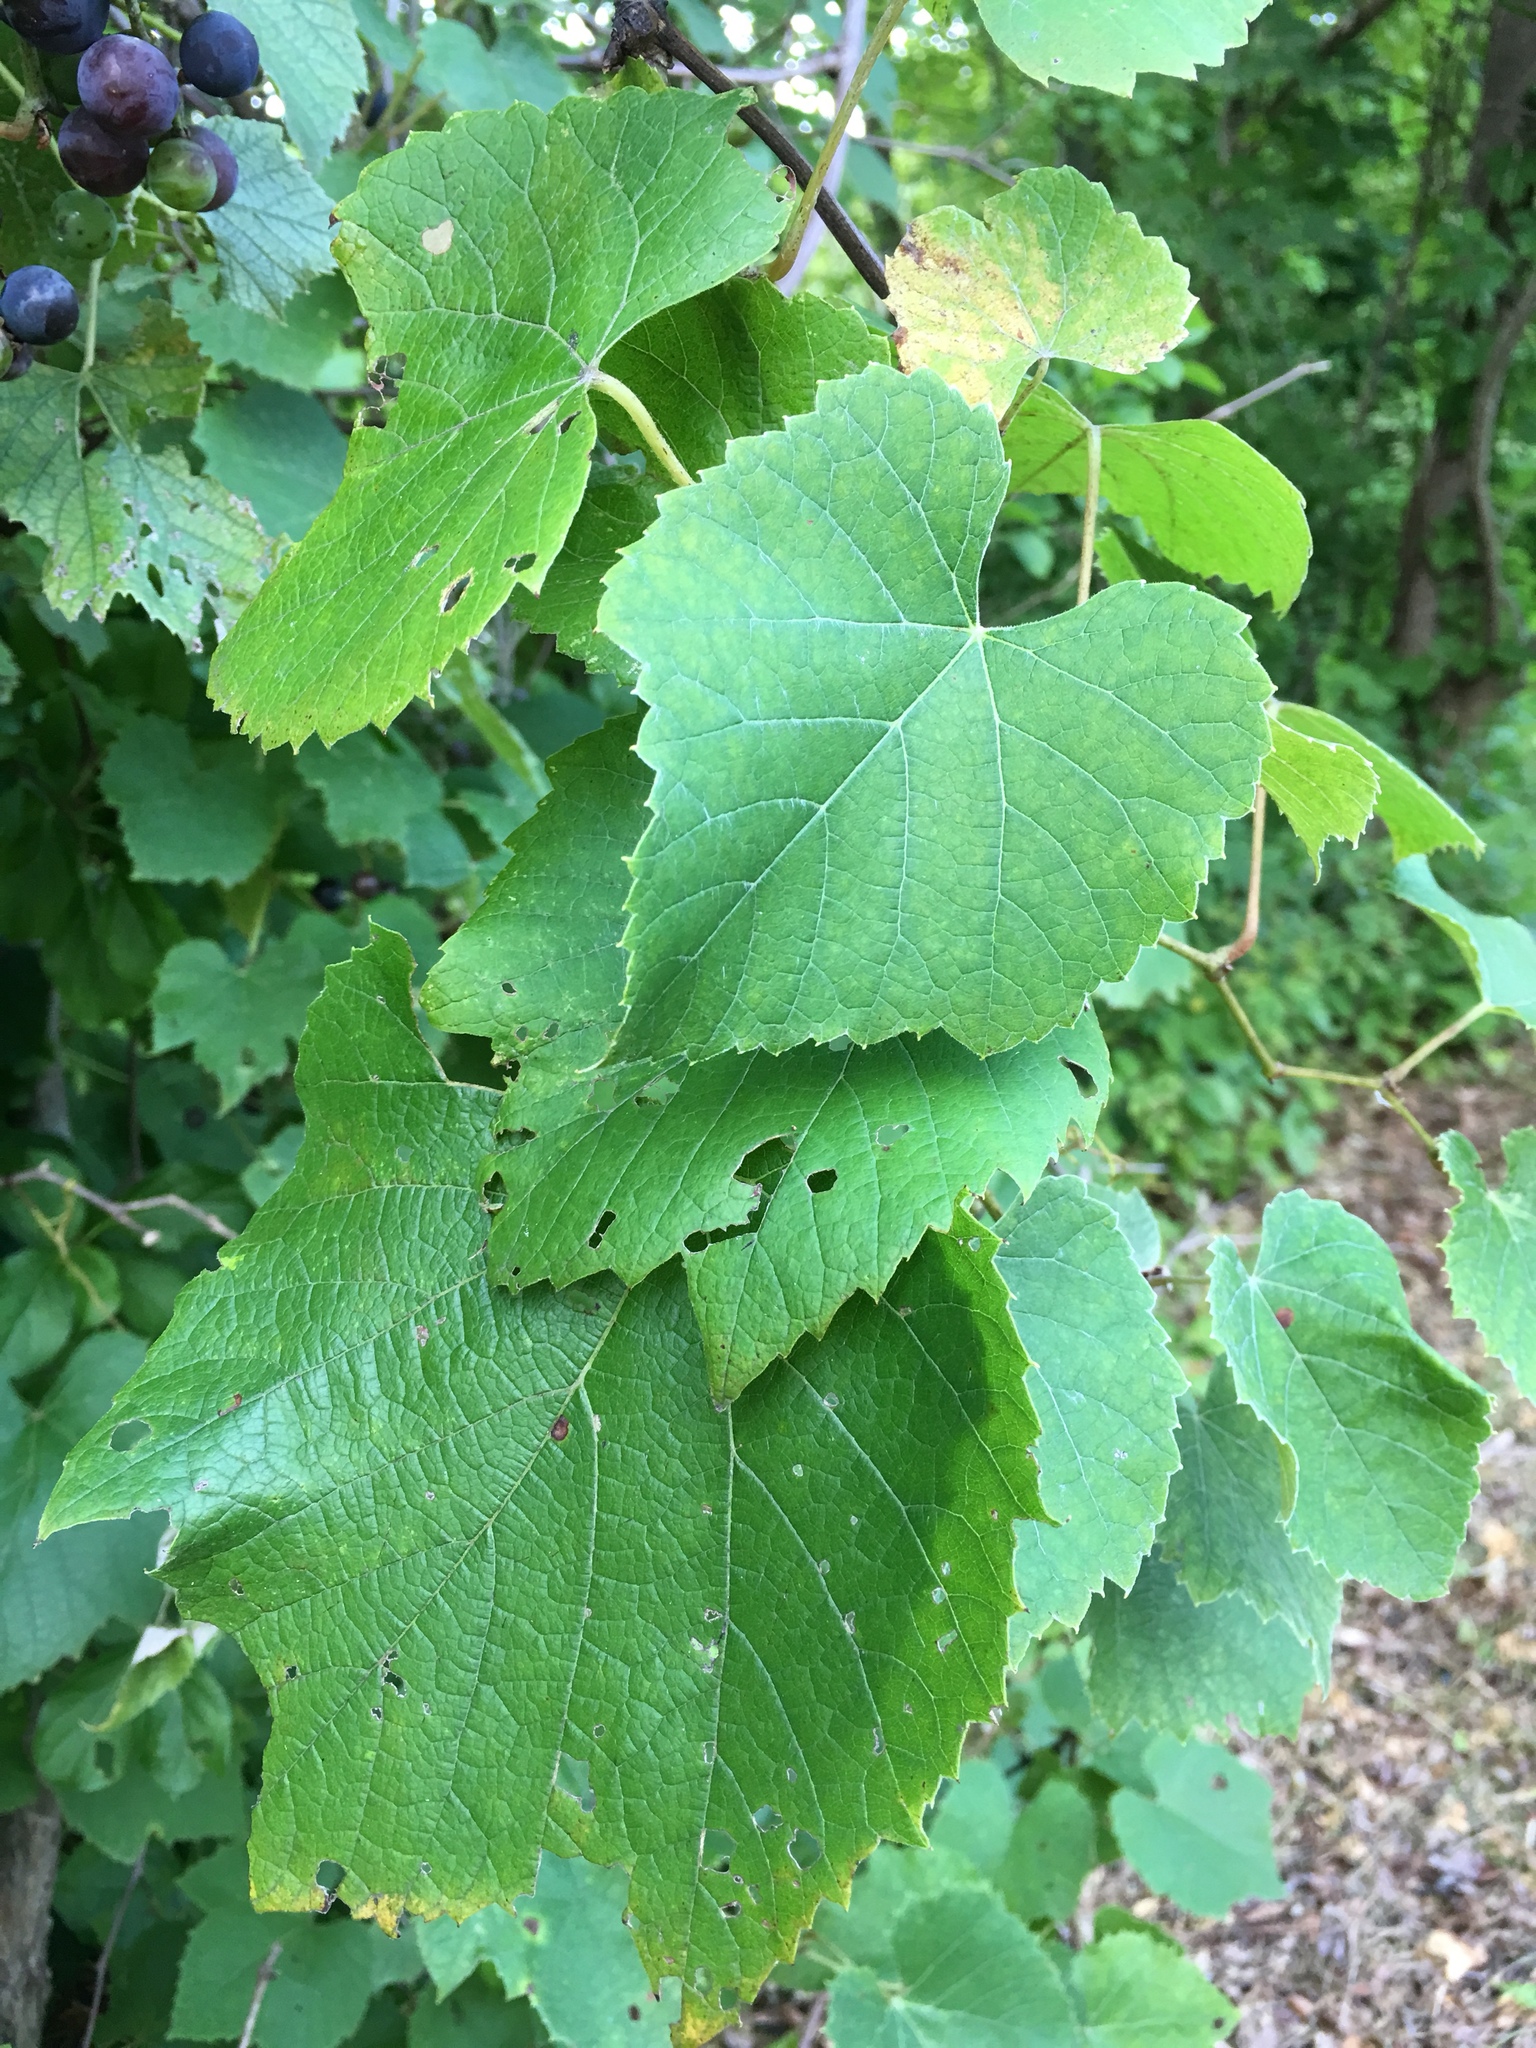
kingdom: Plantae
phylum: Tracheophyta
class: Magnoliopsida
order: Vitales
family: Vitaceae
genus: Vitis
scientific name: Vitis riparia
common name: Frost grape
